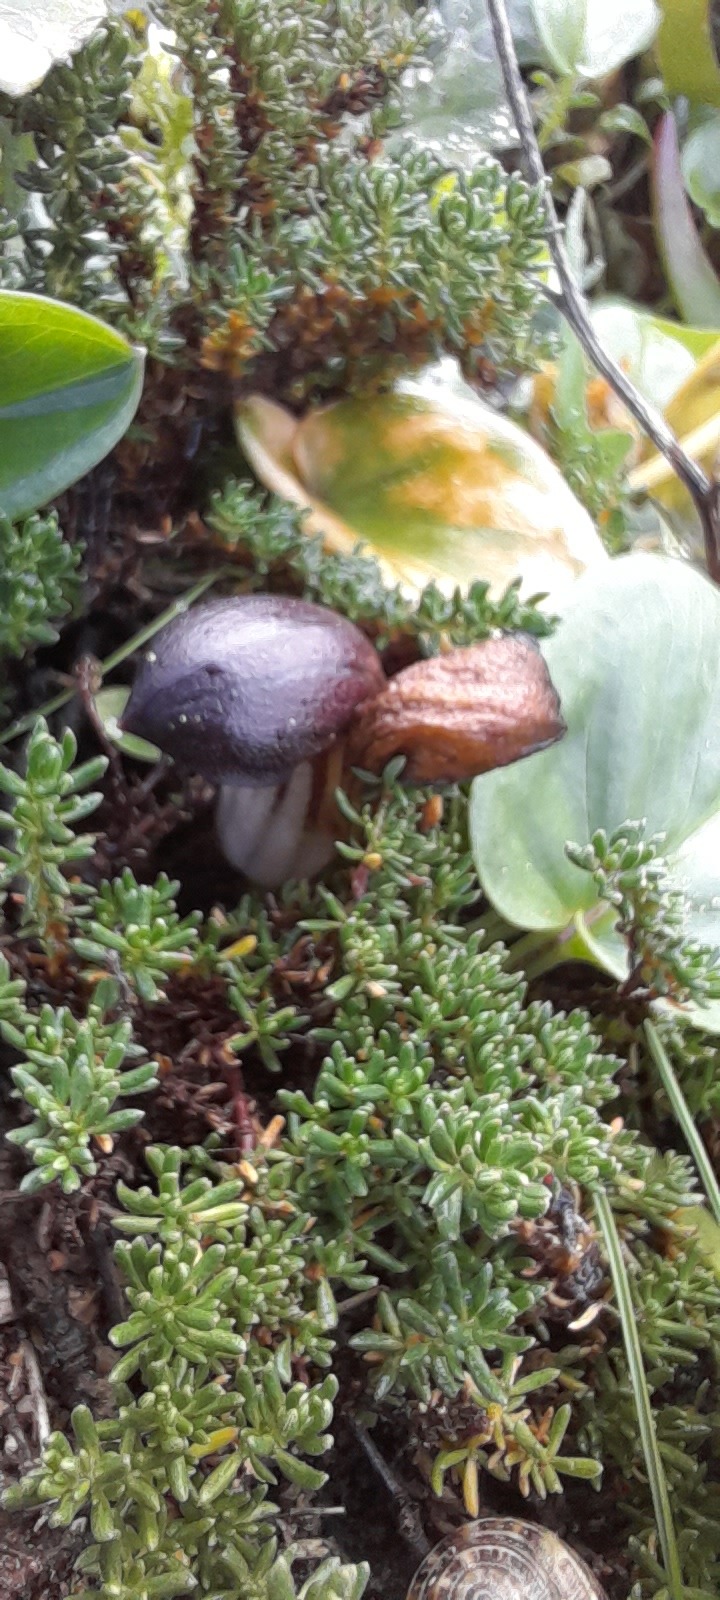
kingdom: Plantae
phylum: Tracheophyta
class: Liliopsida
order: Alismatales
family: Araceae
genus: Arisarum
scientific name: Arisarum simorrhinum
